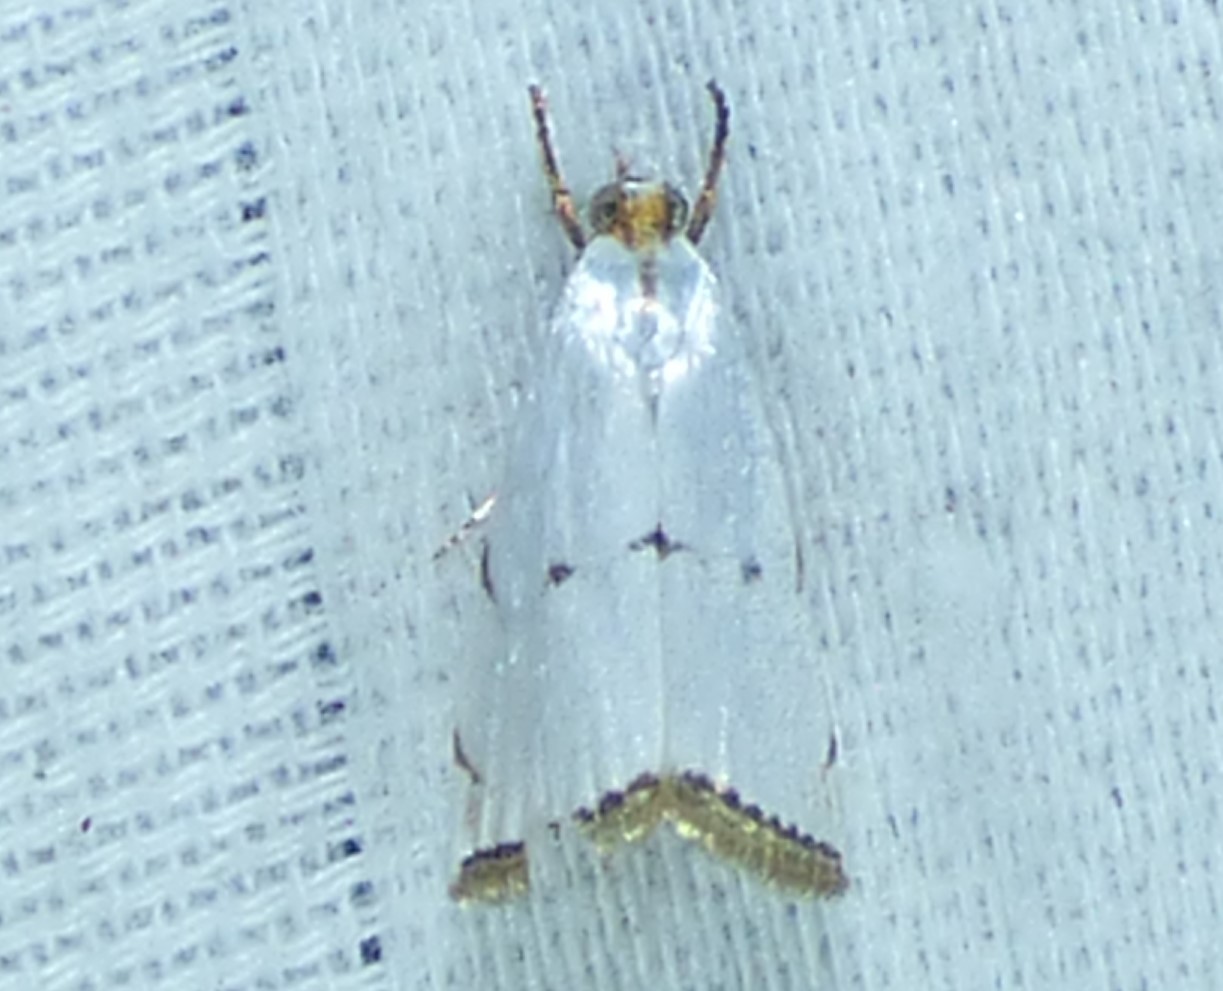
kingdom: Animalia
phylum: Arthropoda
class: Insecta
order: Lepidoptera
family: Crambidae
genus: Argyria
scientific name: Argyria pusillalis
